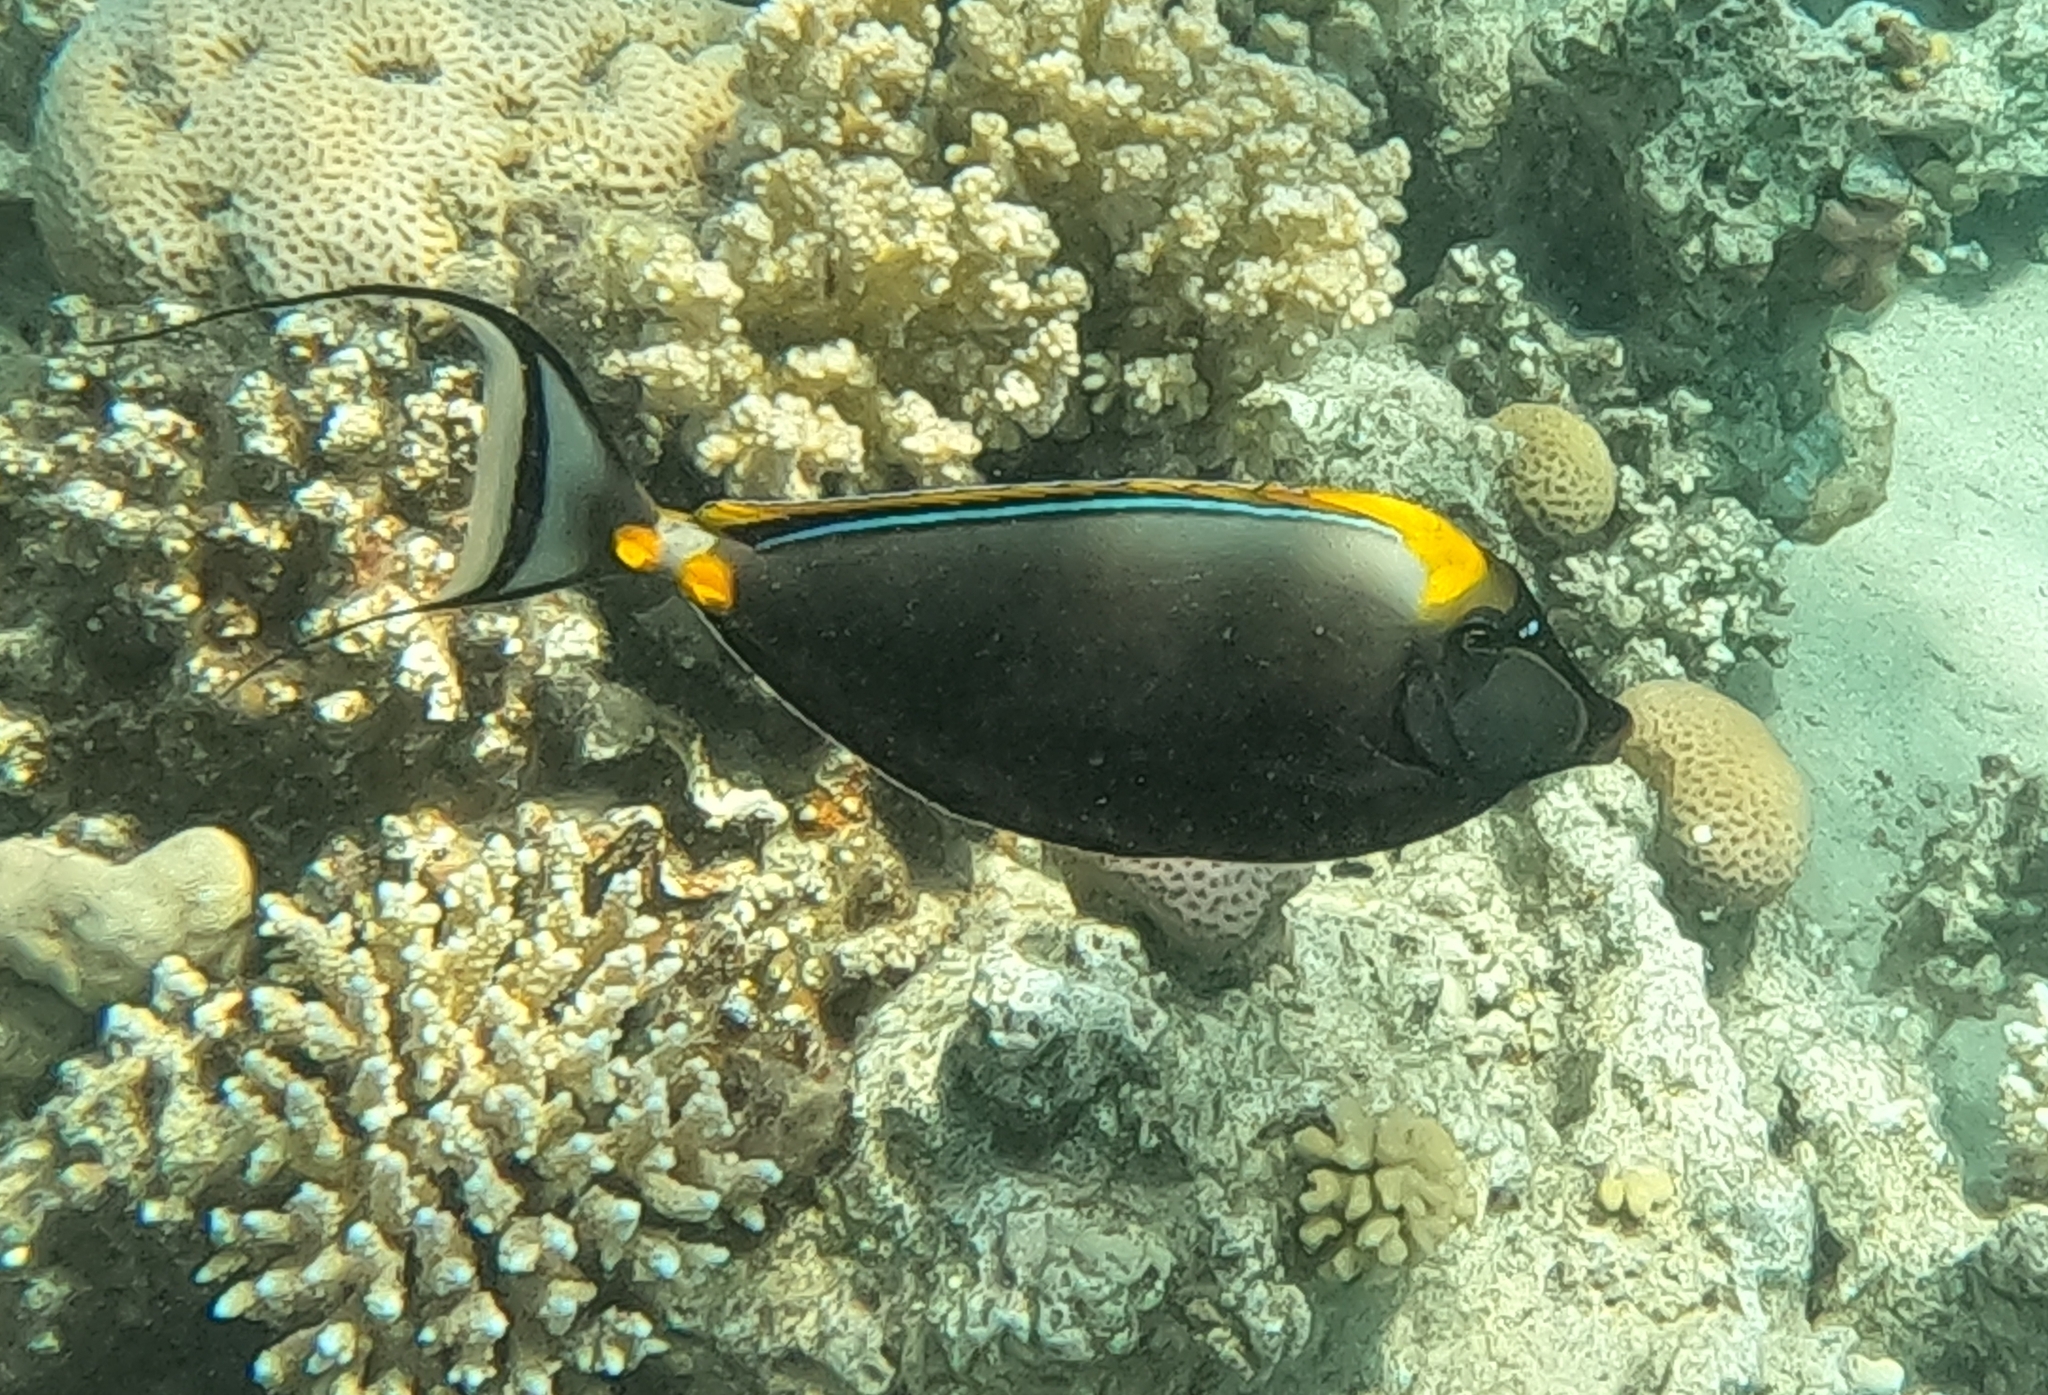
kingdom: Animalia
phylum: Chordata
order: Perciformes
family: Acanthuridae
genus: Naso
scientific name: Naso elegans
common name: Orangespine unicornfish
